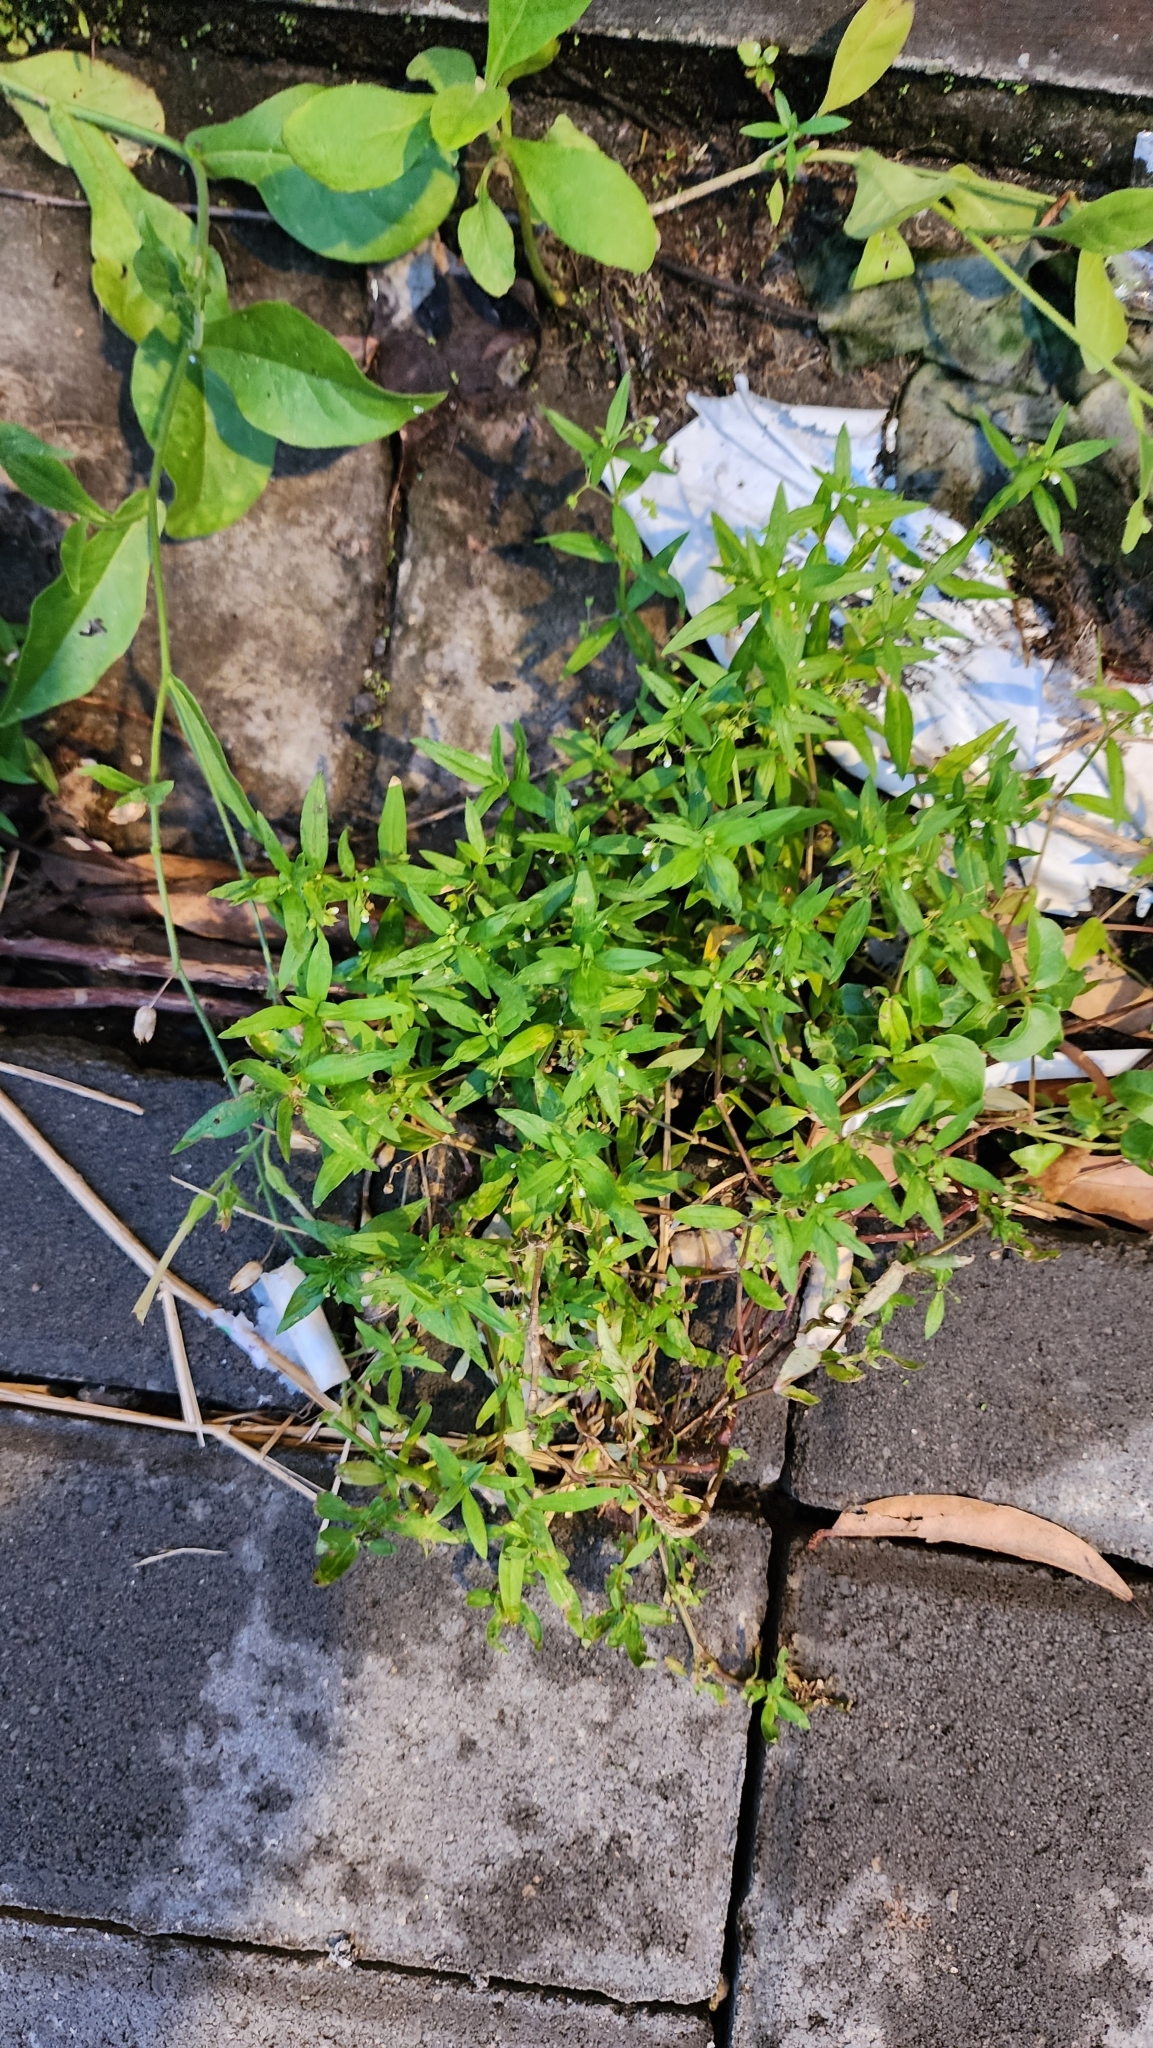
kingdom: Plantae
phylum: Tracheophyta
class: Magnoliopsida
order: Gentianales
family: Rubiaceae
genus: Oldenlandia
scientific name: Oldenlandia corymbosa
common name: Flat-top mille graines
